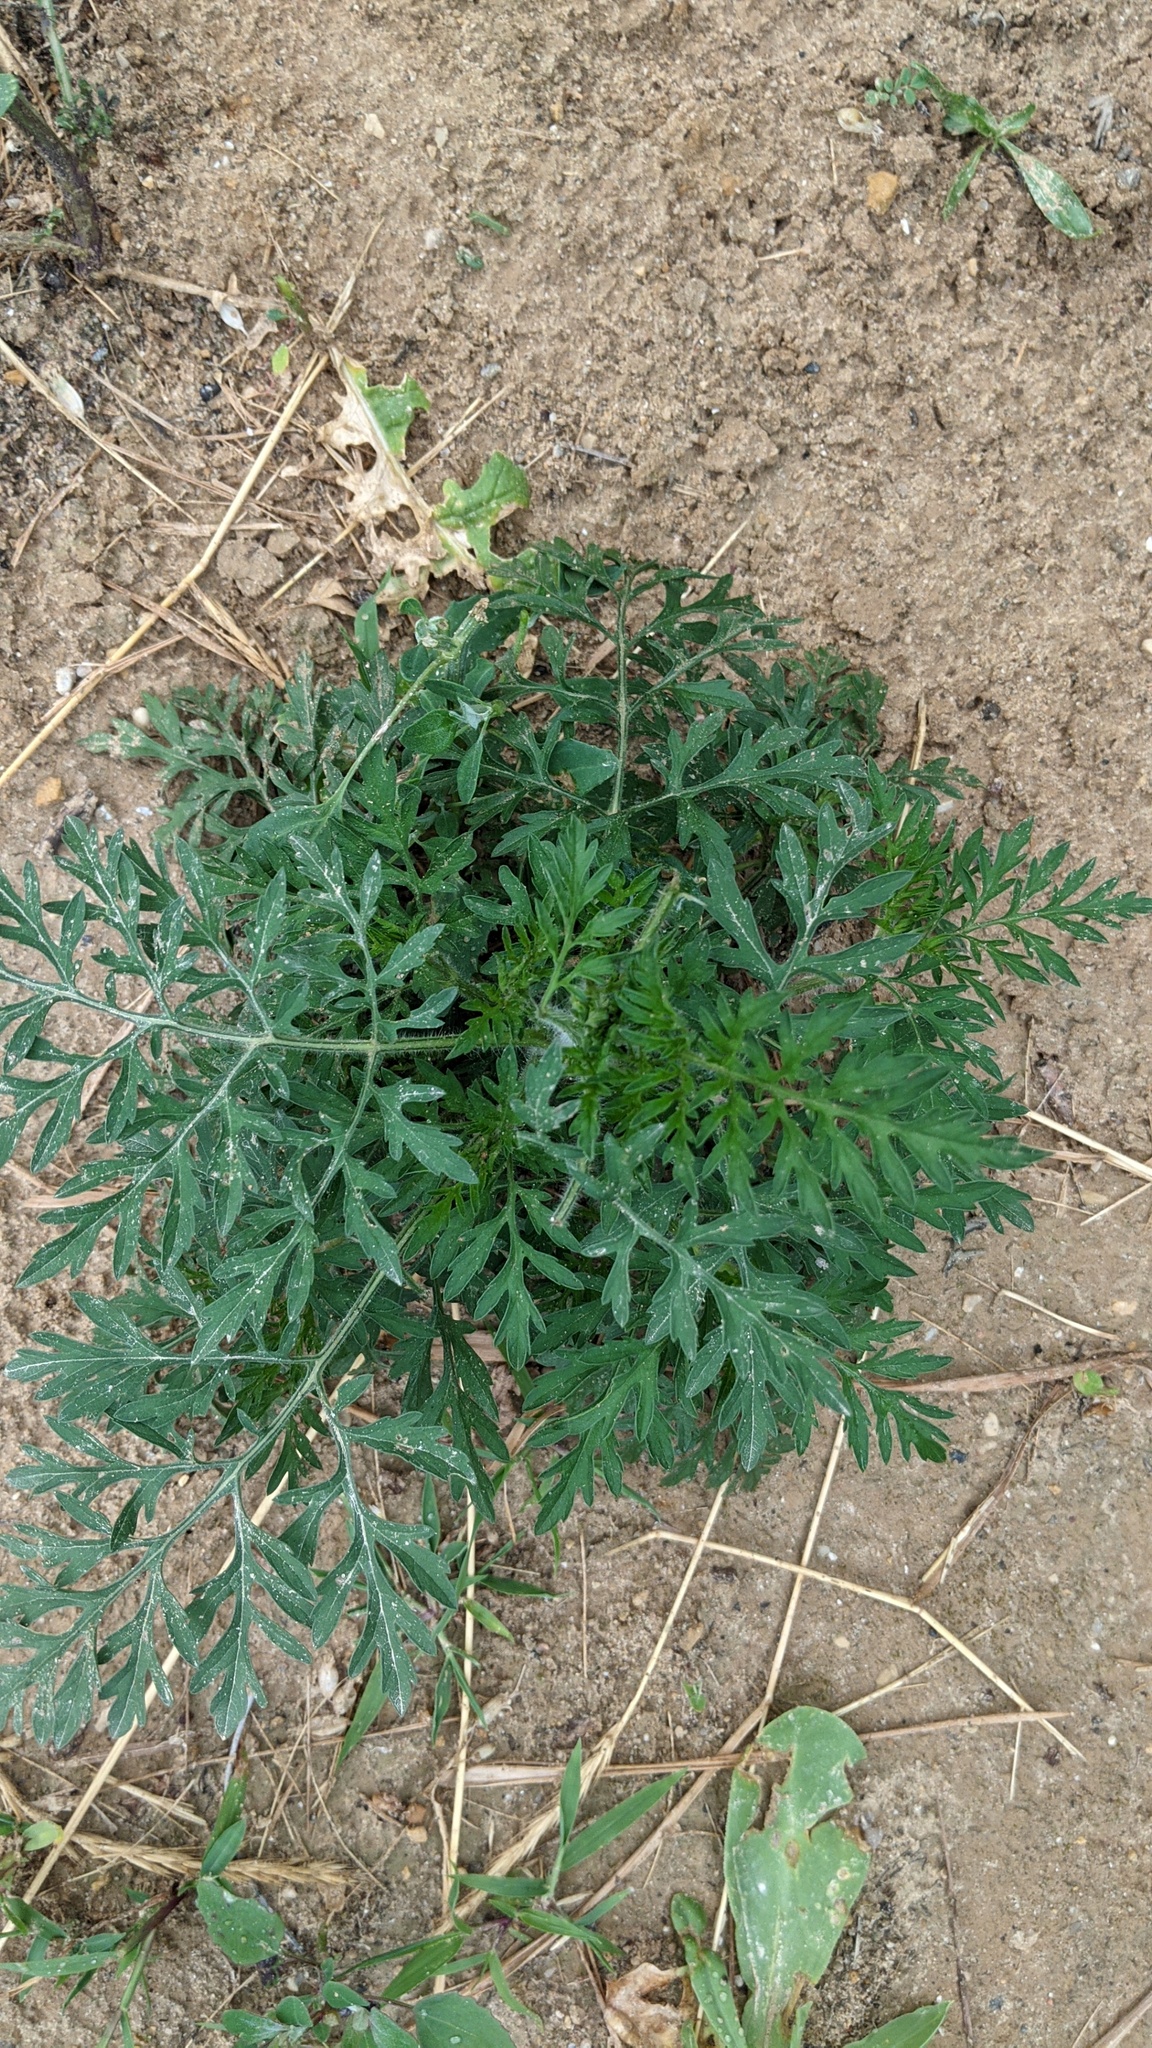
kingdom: Plantae
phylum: Tracheophyta
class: Magnoliopsida
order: Asterales
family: Asteraceae
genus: Ambrosia
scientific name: Ambrosia artemisiifolia
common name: Annual ragweed
